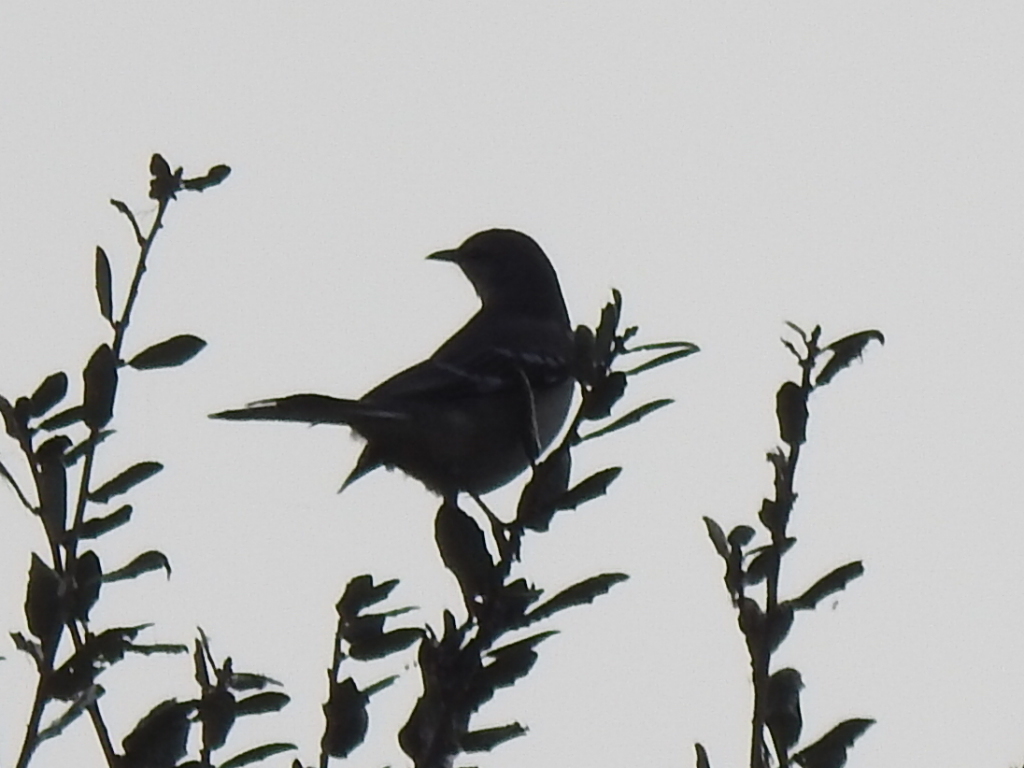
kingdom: Animalia
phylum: Chordata
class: Aves
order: Passeriformes
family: Mimidae
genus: Mimus
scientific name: Mimus polyglottos
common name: Northern mockingbird
